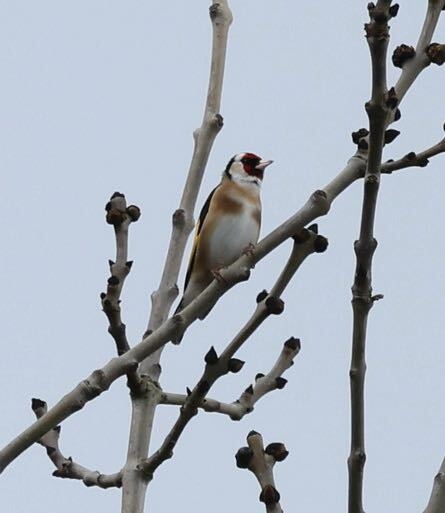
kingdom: Animalia
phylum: Chordata
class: Aves
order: Passeriformes
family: Fringillidae
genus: Carduelis
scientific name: Carduelis carduelis
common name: European goldfinch
